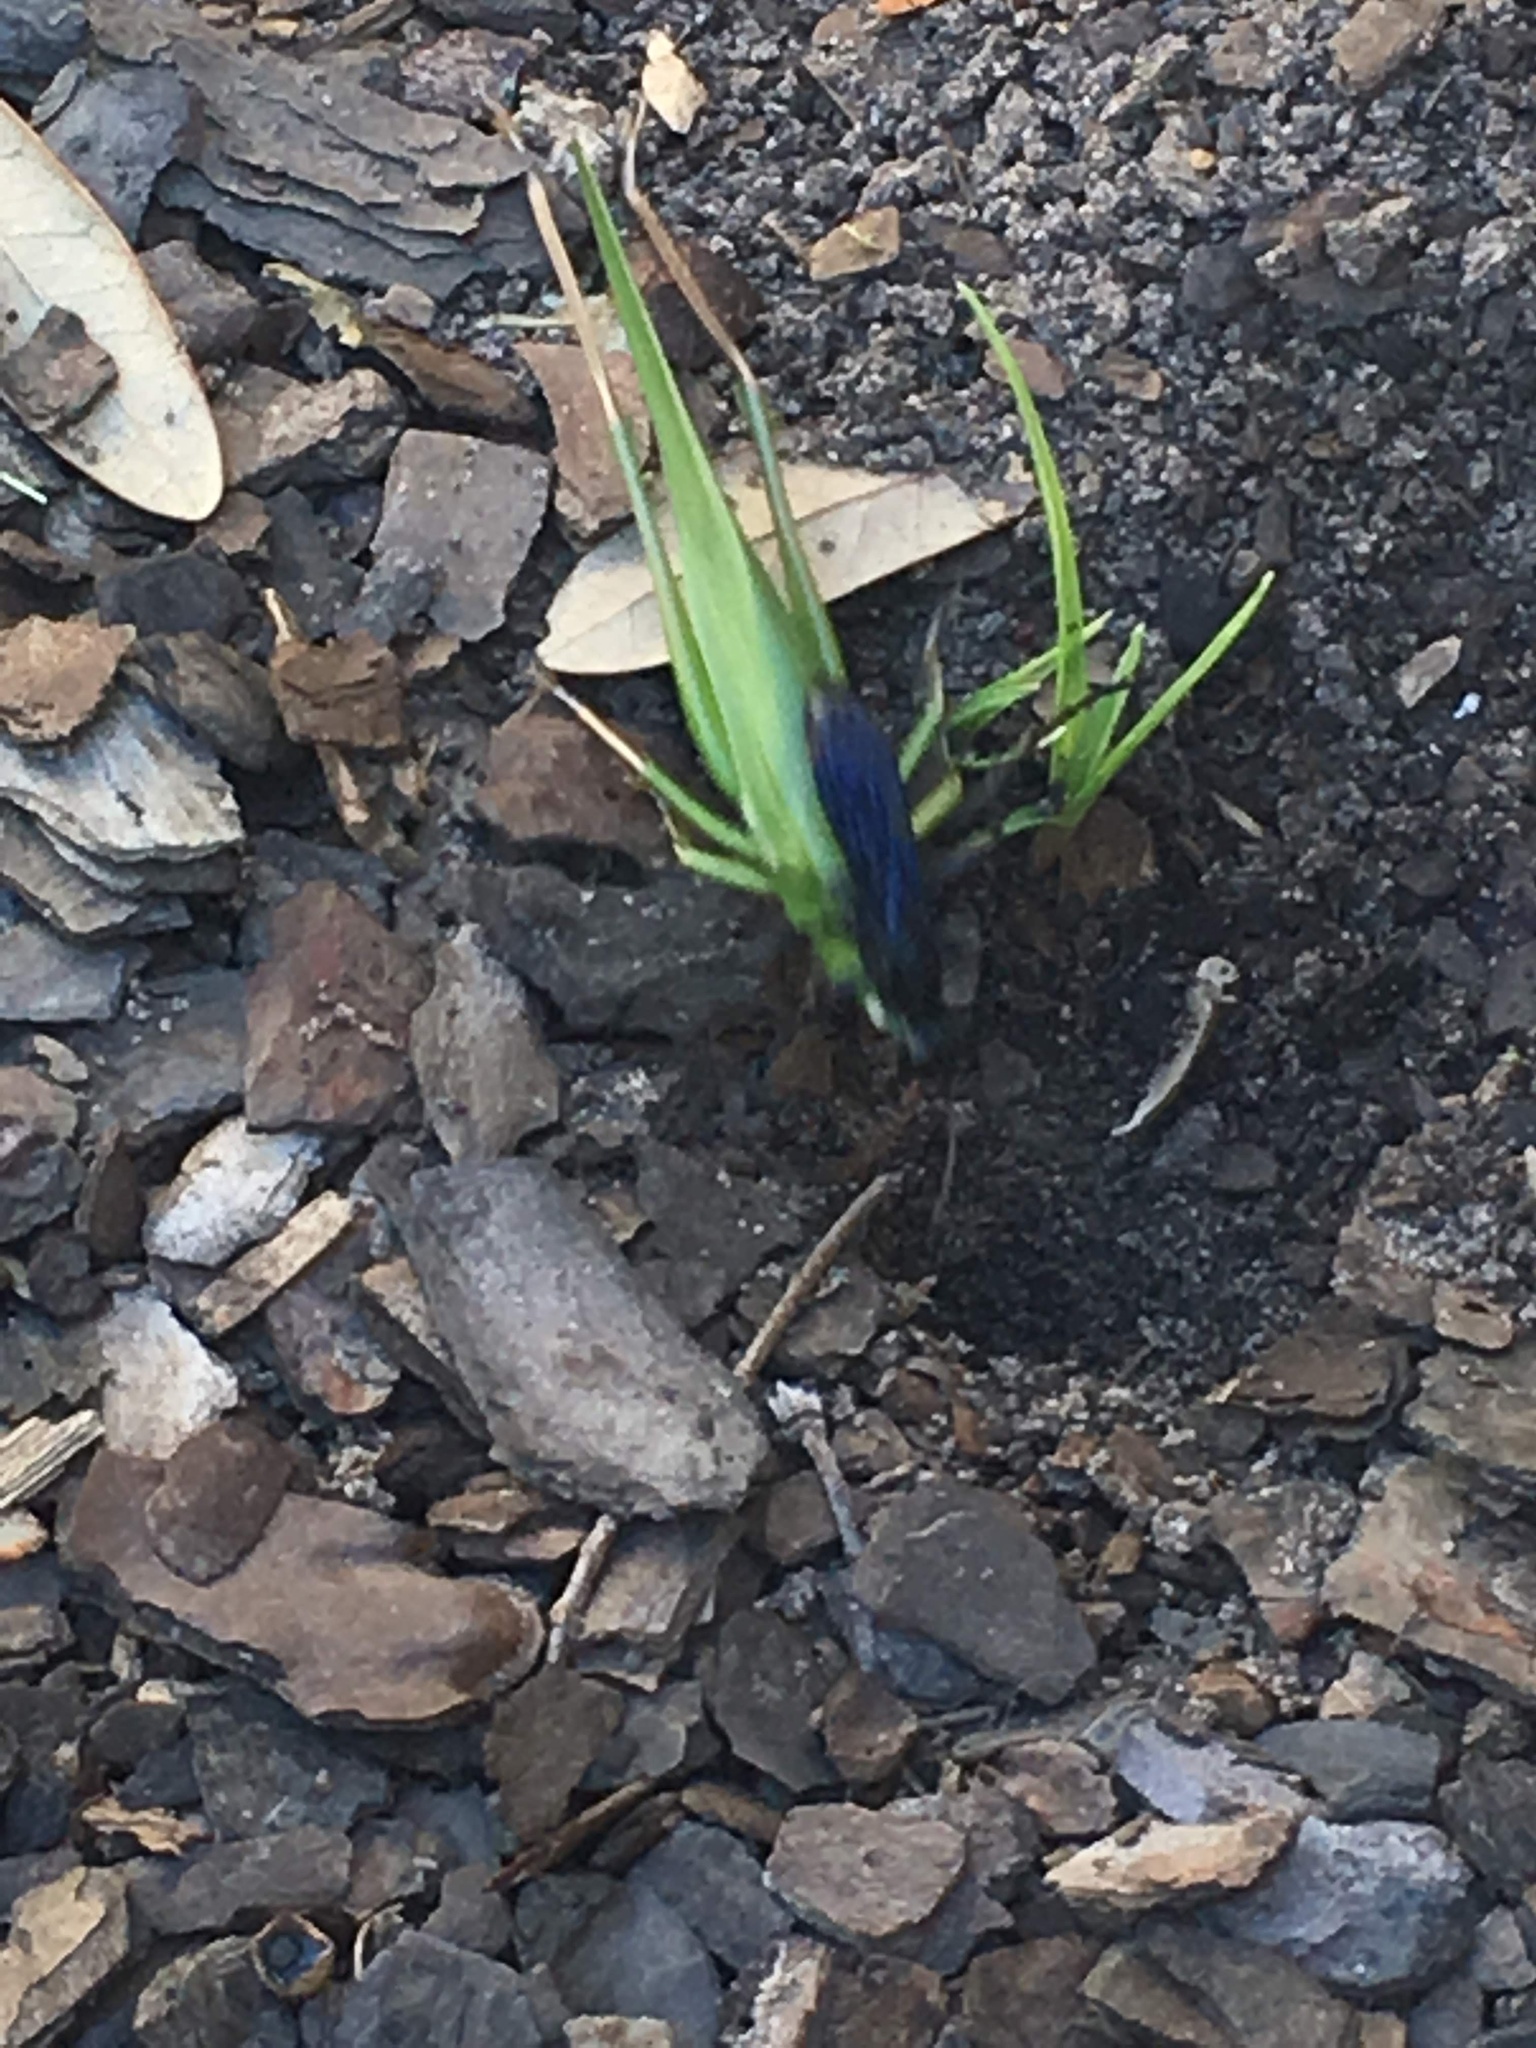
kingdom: Animalia
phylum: Arthropoda
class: Insecta
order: Hymenoptera
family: Sphecidae
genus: Palmodes
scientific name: Palmodes dimidiatus
